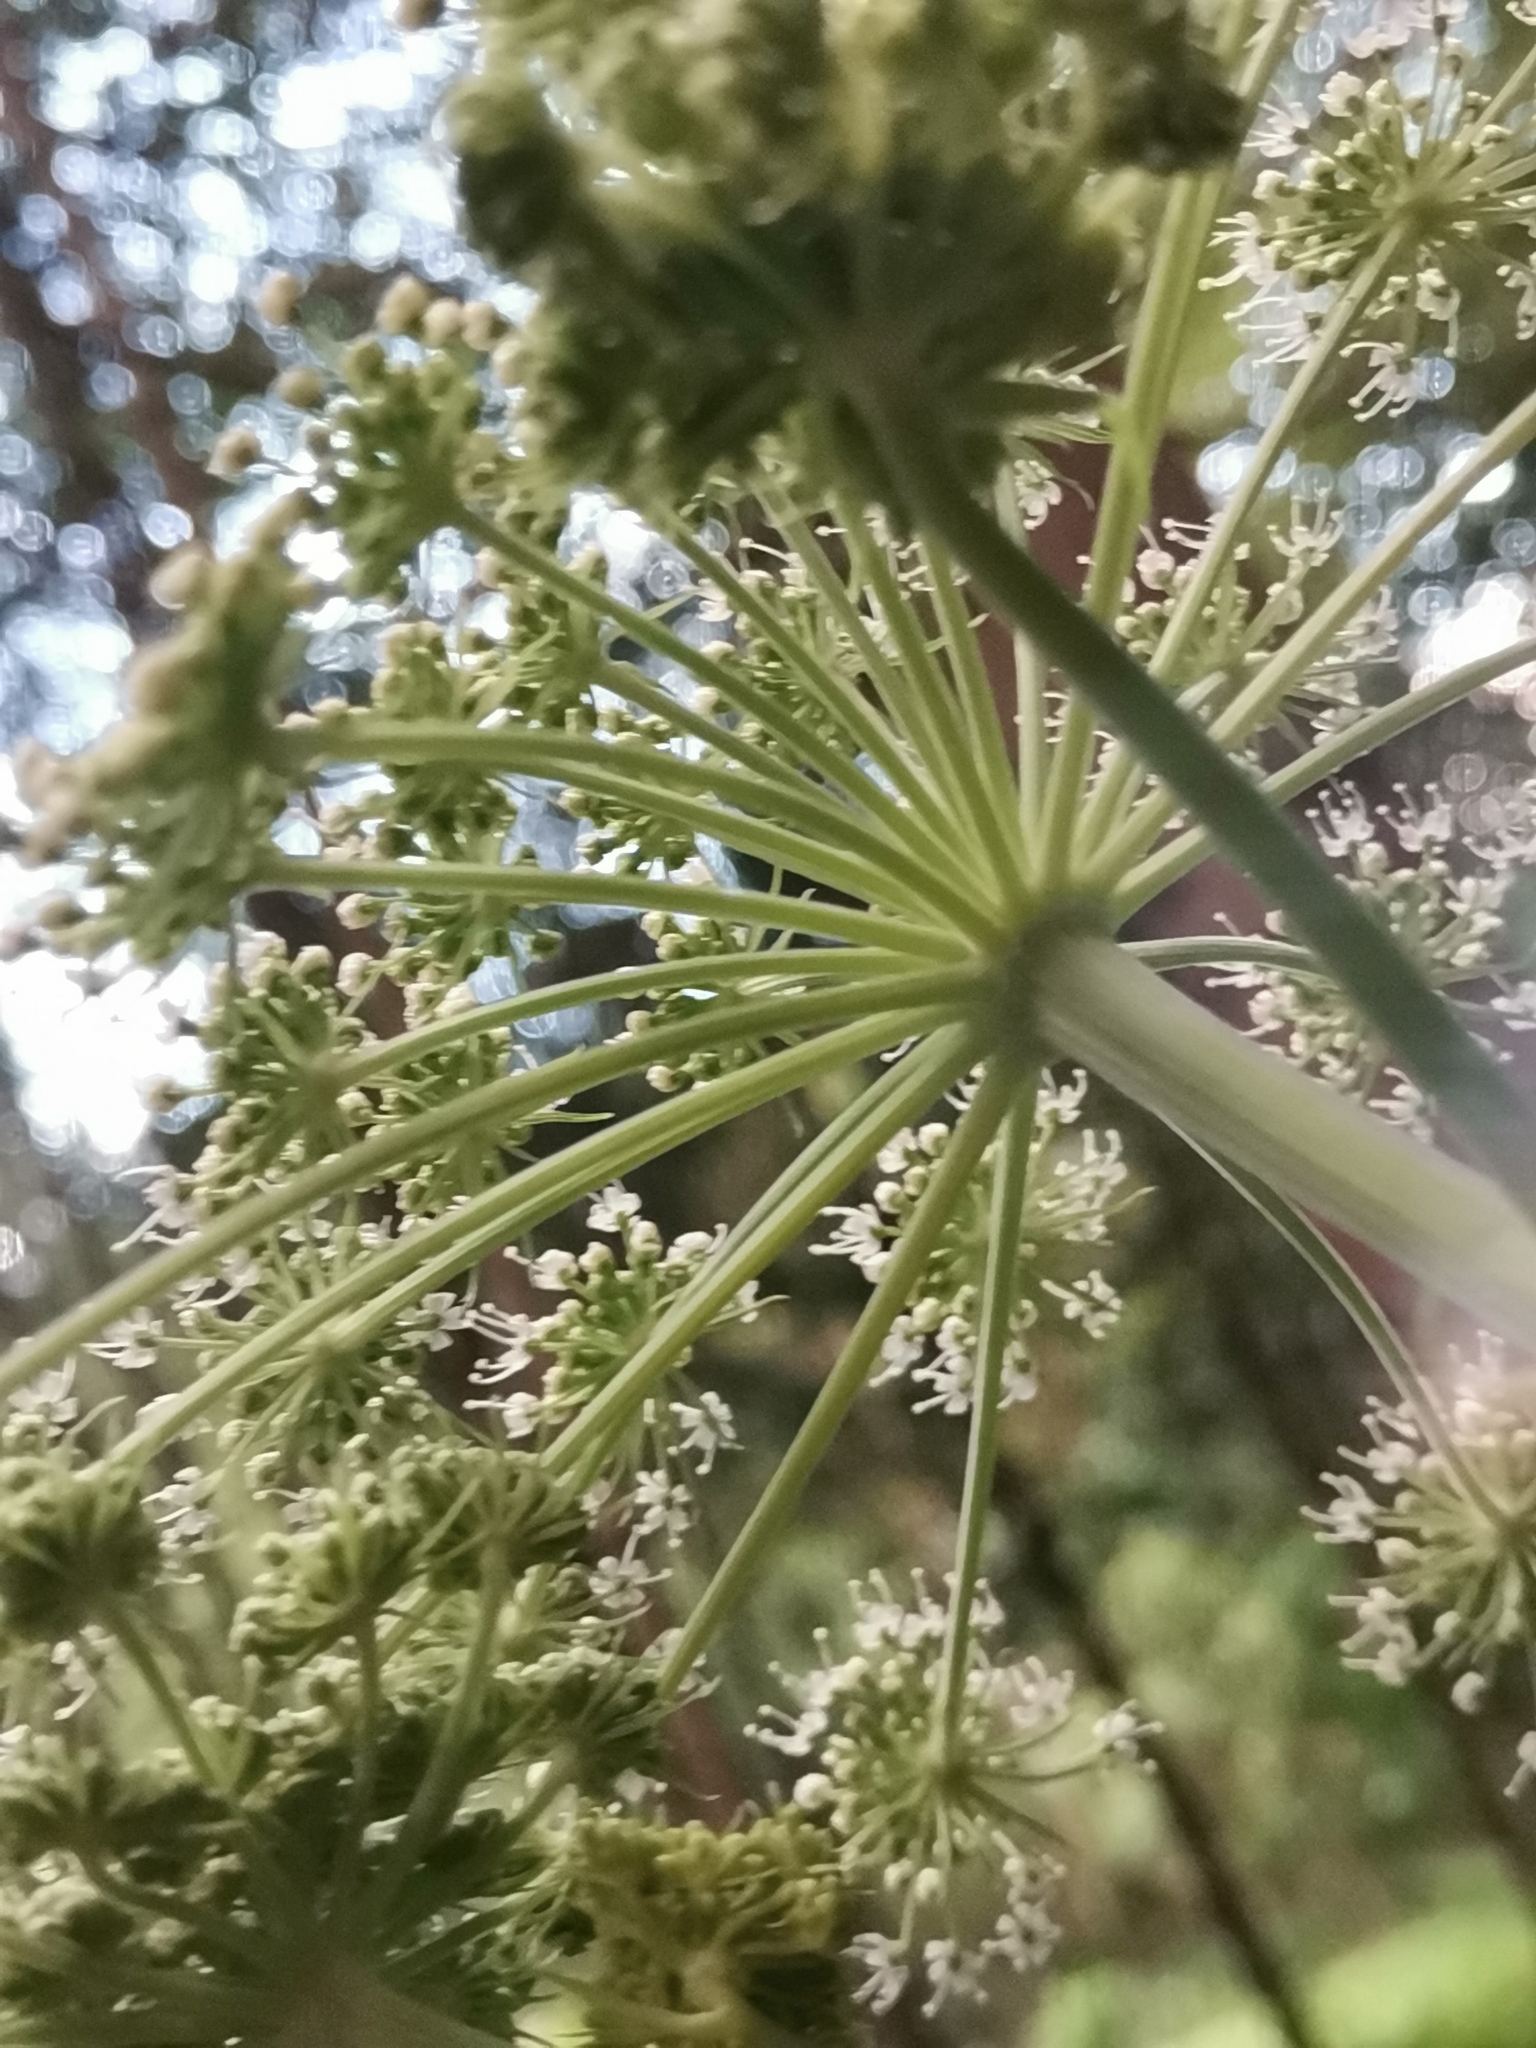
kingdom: Plantae
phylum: Tracheophyta
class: Magnoliopsida
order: Apiales
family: Apiaceae
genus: Angelica
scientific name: Angelica sylvestris
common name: Wild angelica
